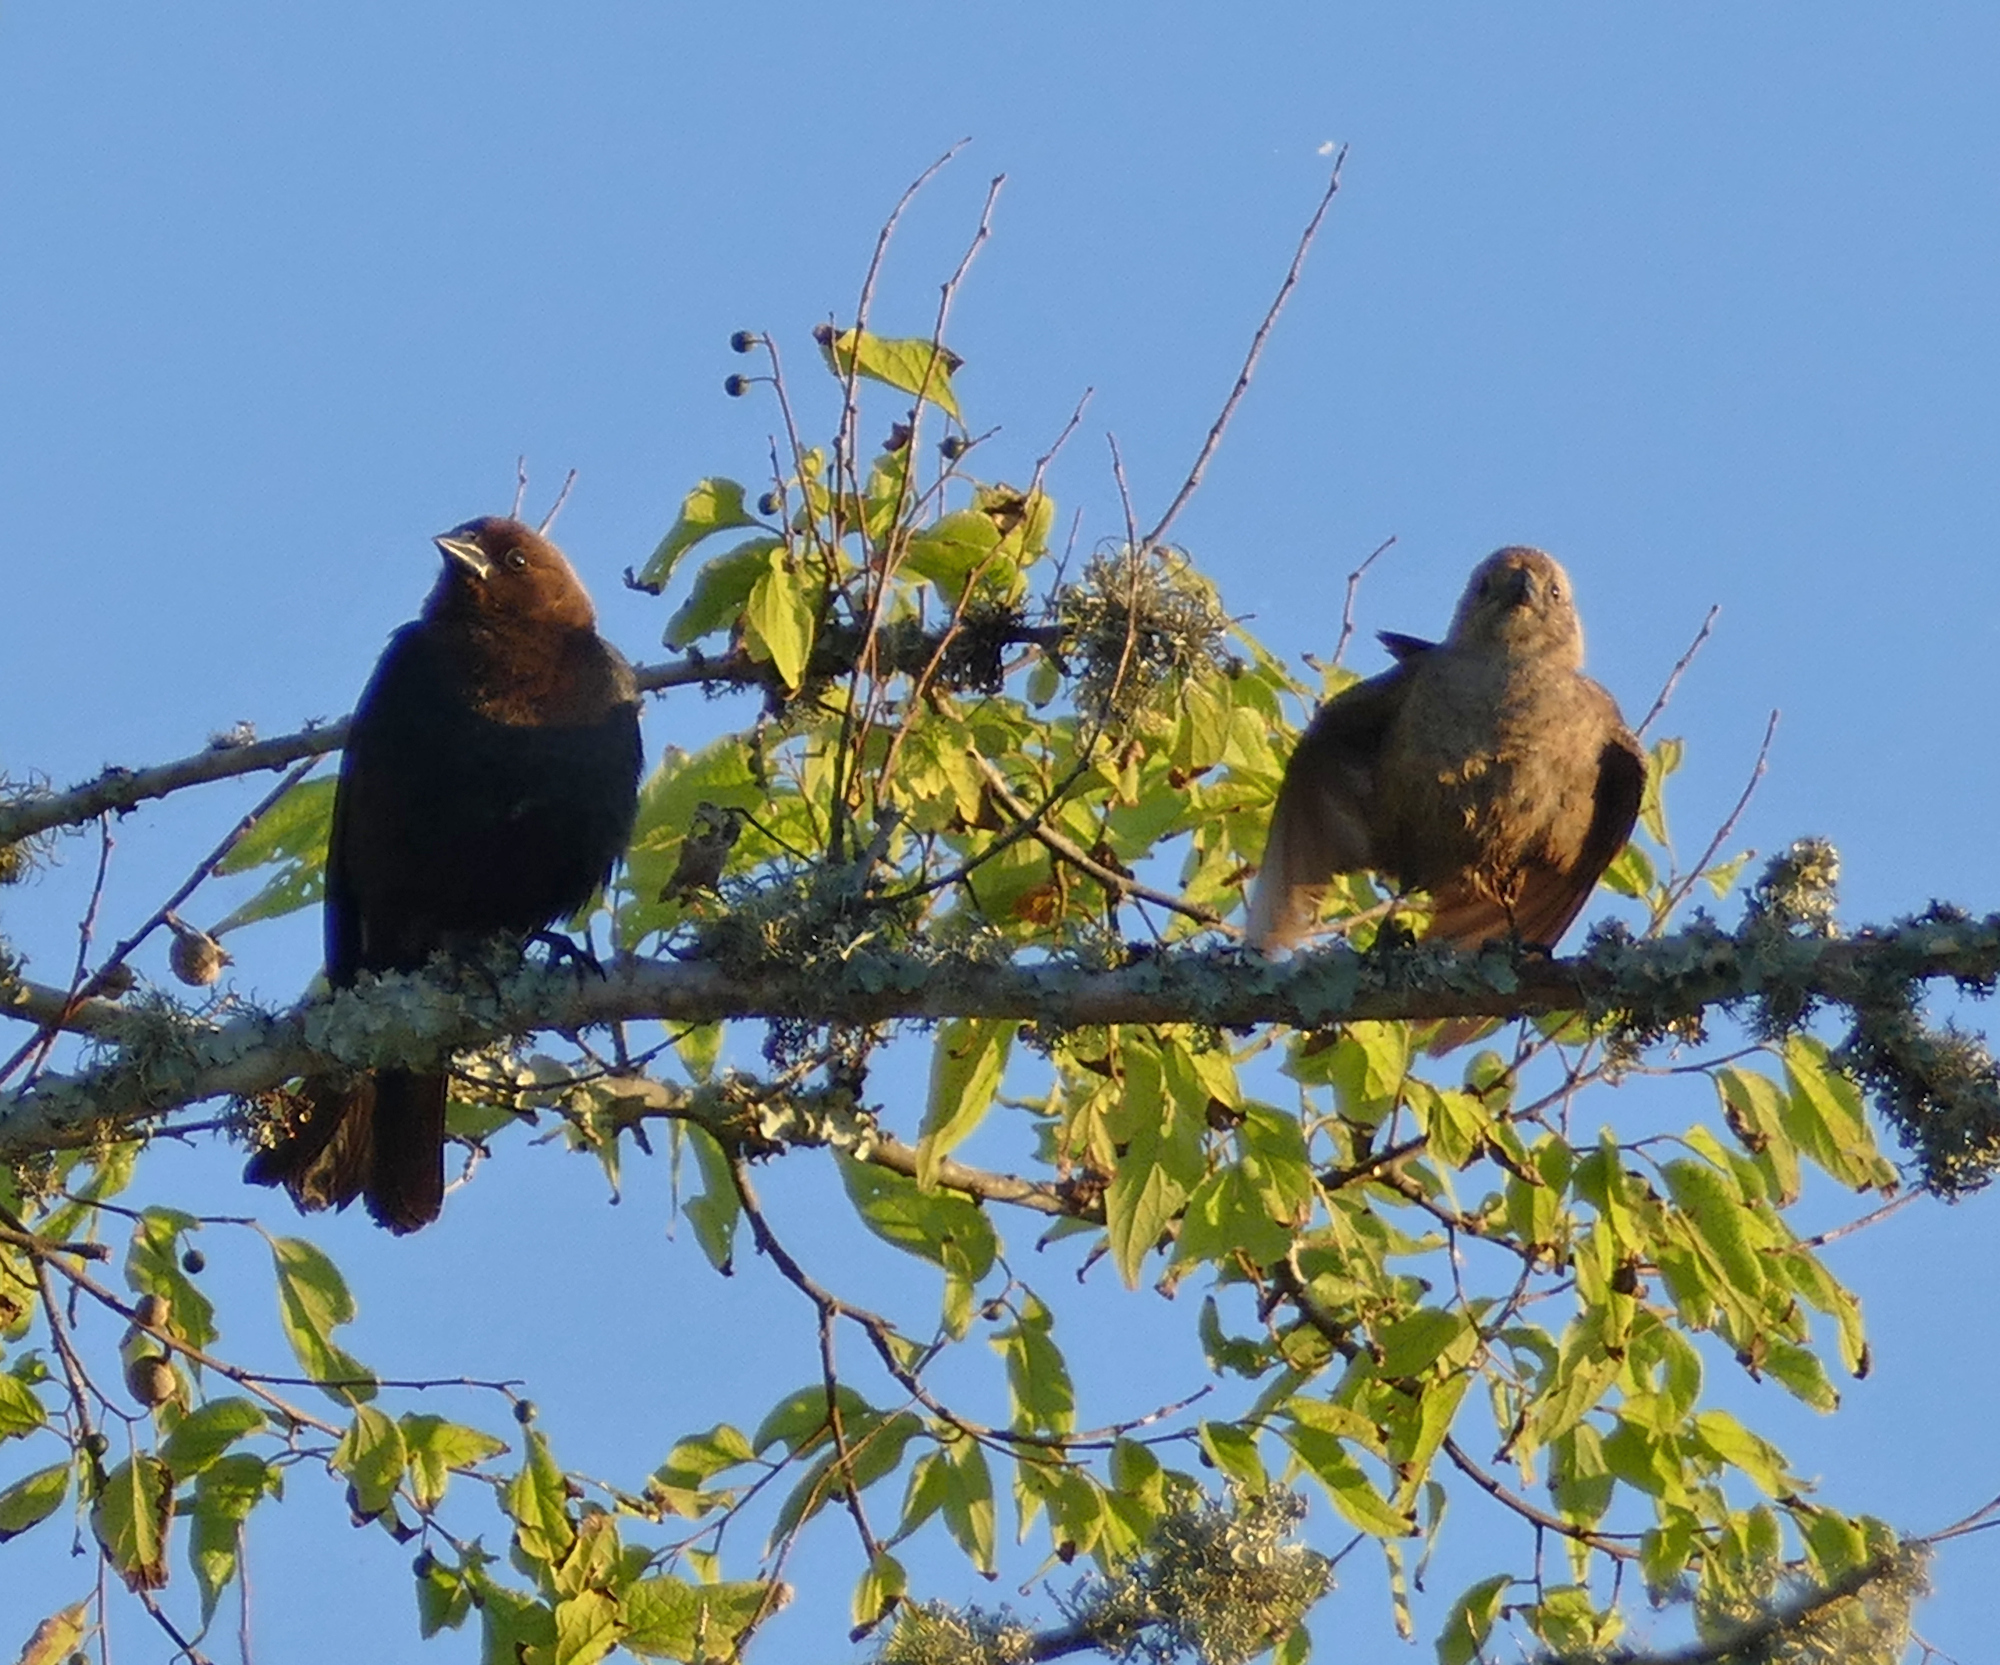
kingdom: Animalia
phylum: Chordata
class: Aves
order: Passeriformes
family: Icteridae
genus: Molothrus
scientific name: Molothrus ater
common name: Brown-headed cowbird
